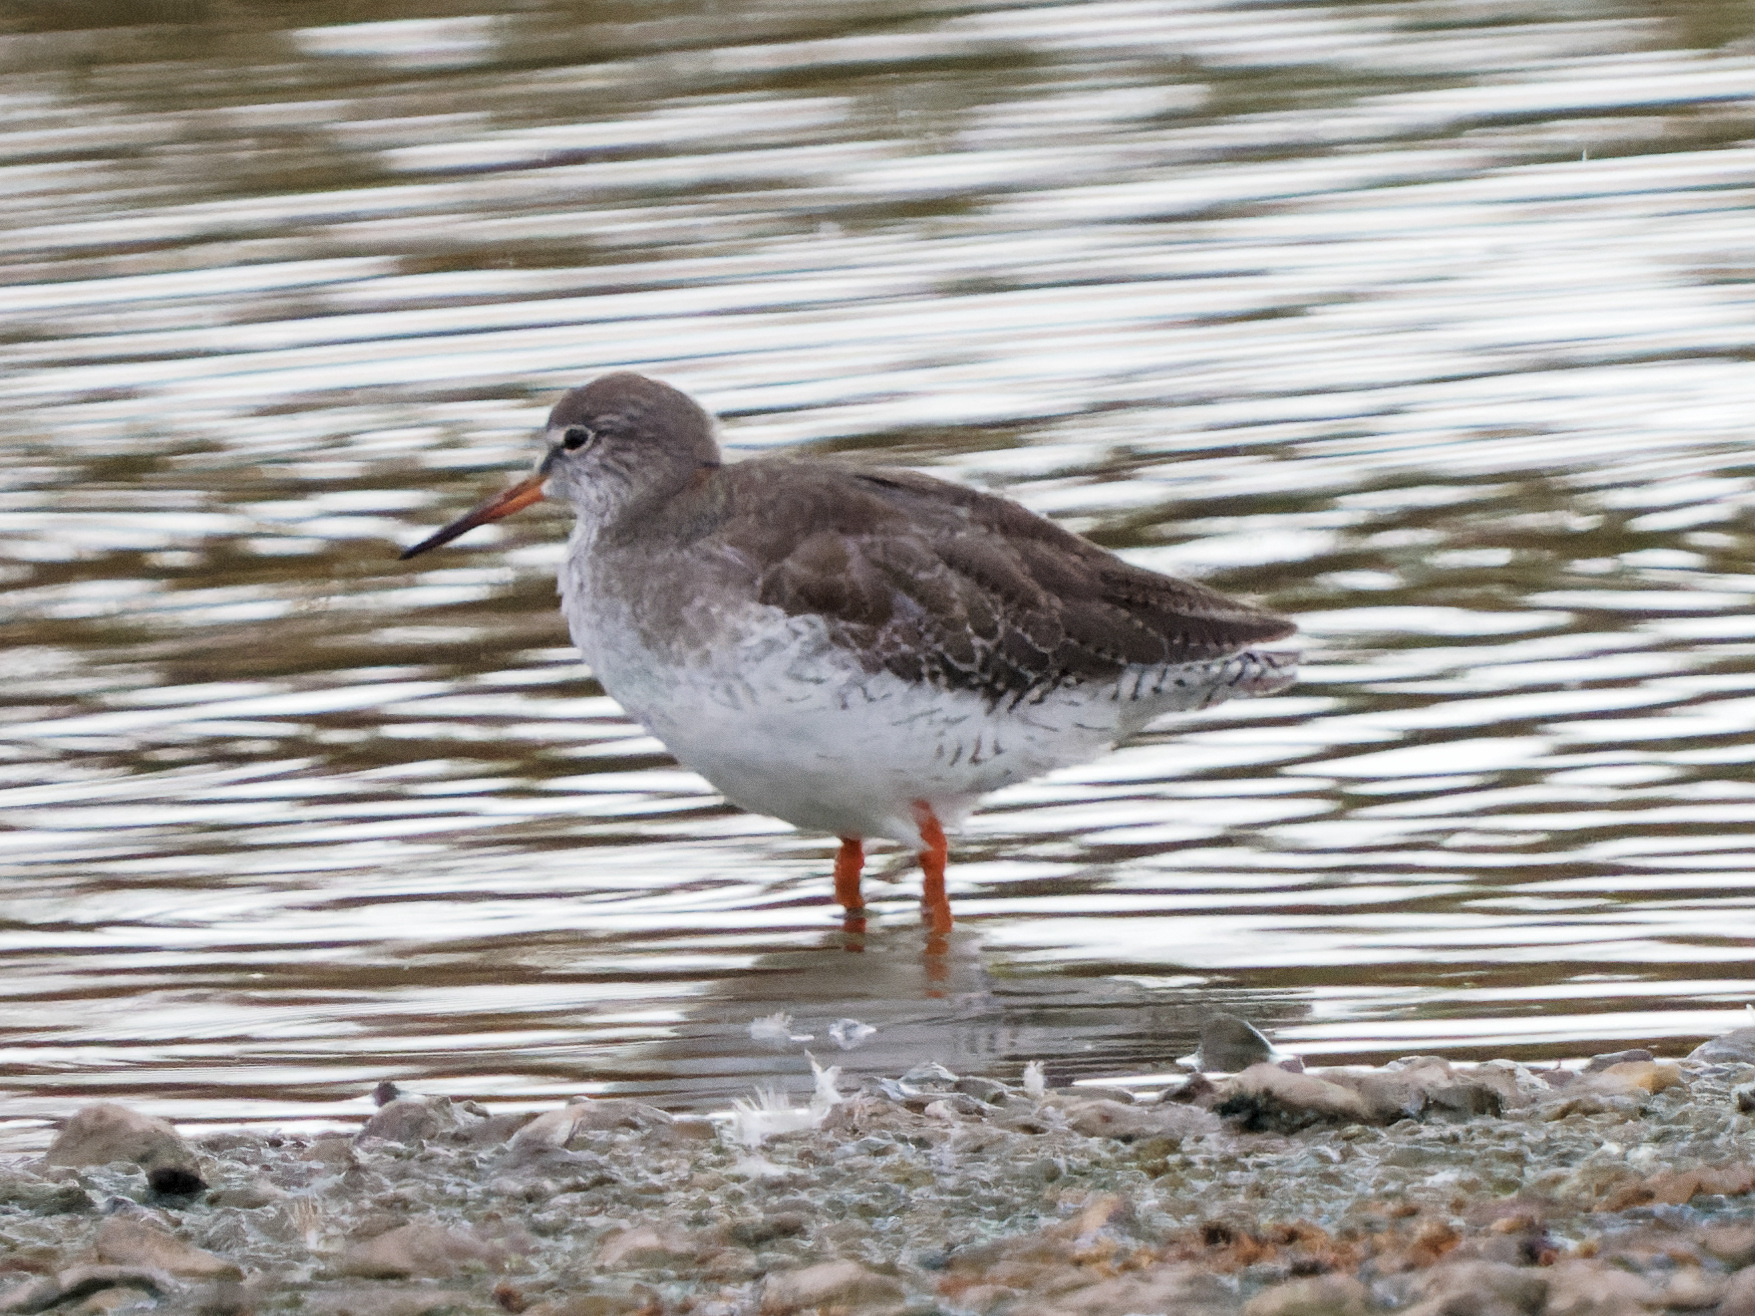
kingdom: Animalia
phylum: Chordata
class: Aves
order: Charadriiformes
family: Scolopacidae
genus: Tringa
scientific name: Tringa erythropus
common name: Spotted redshank
